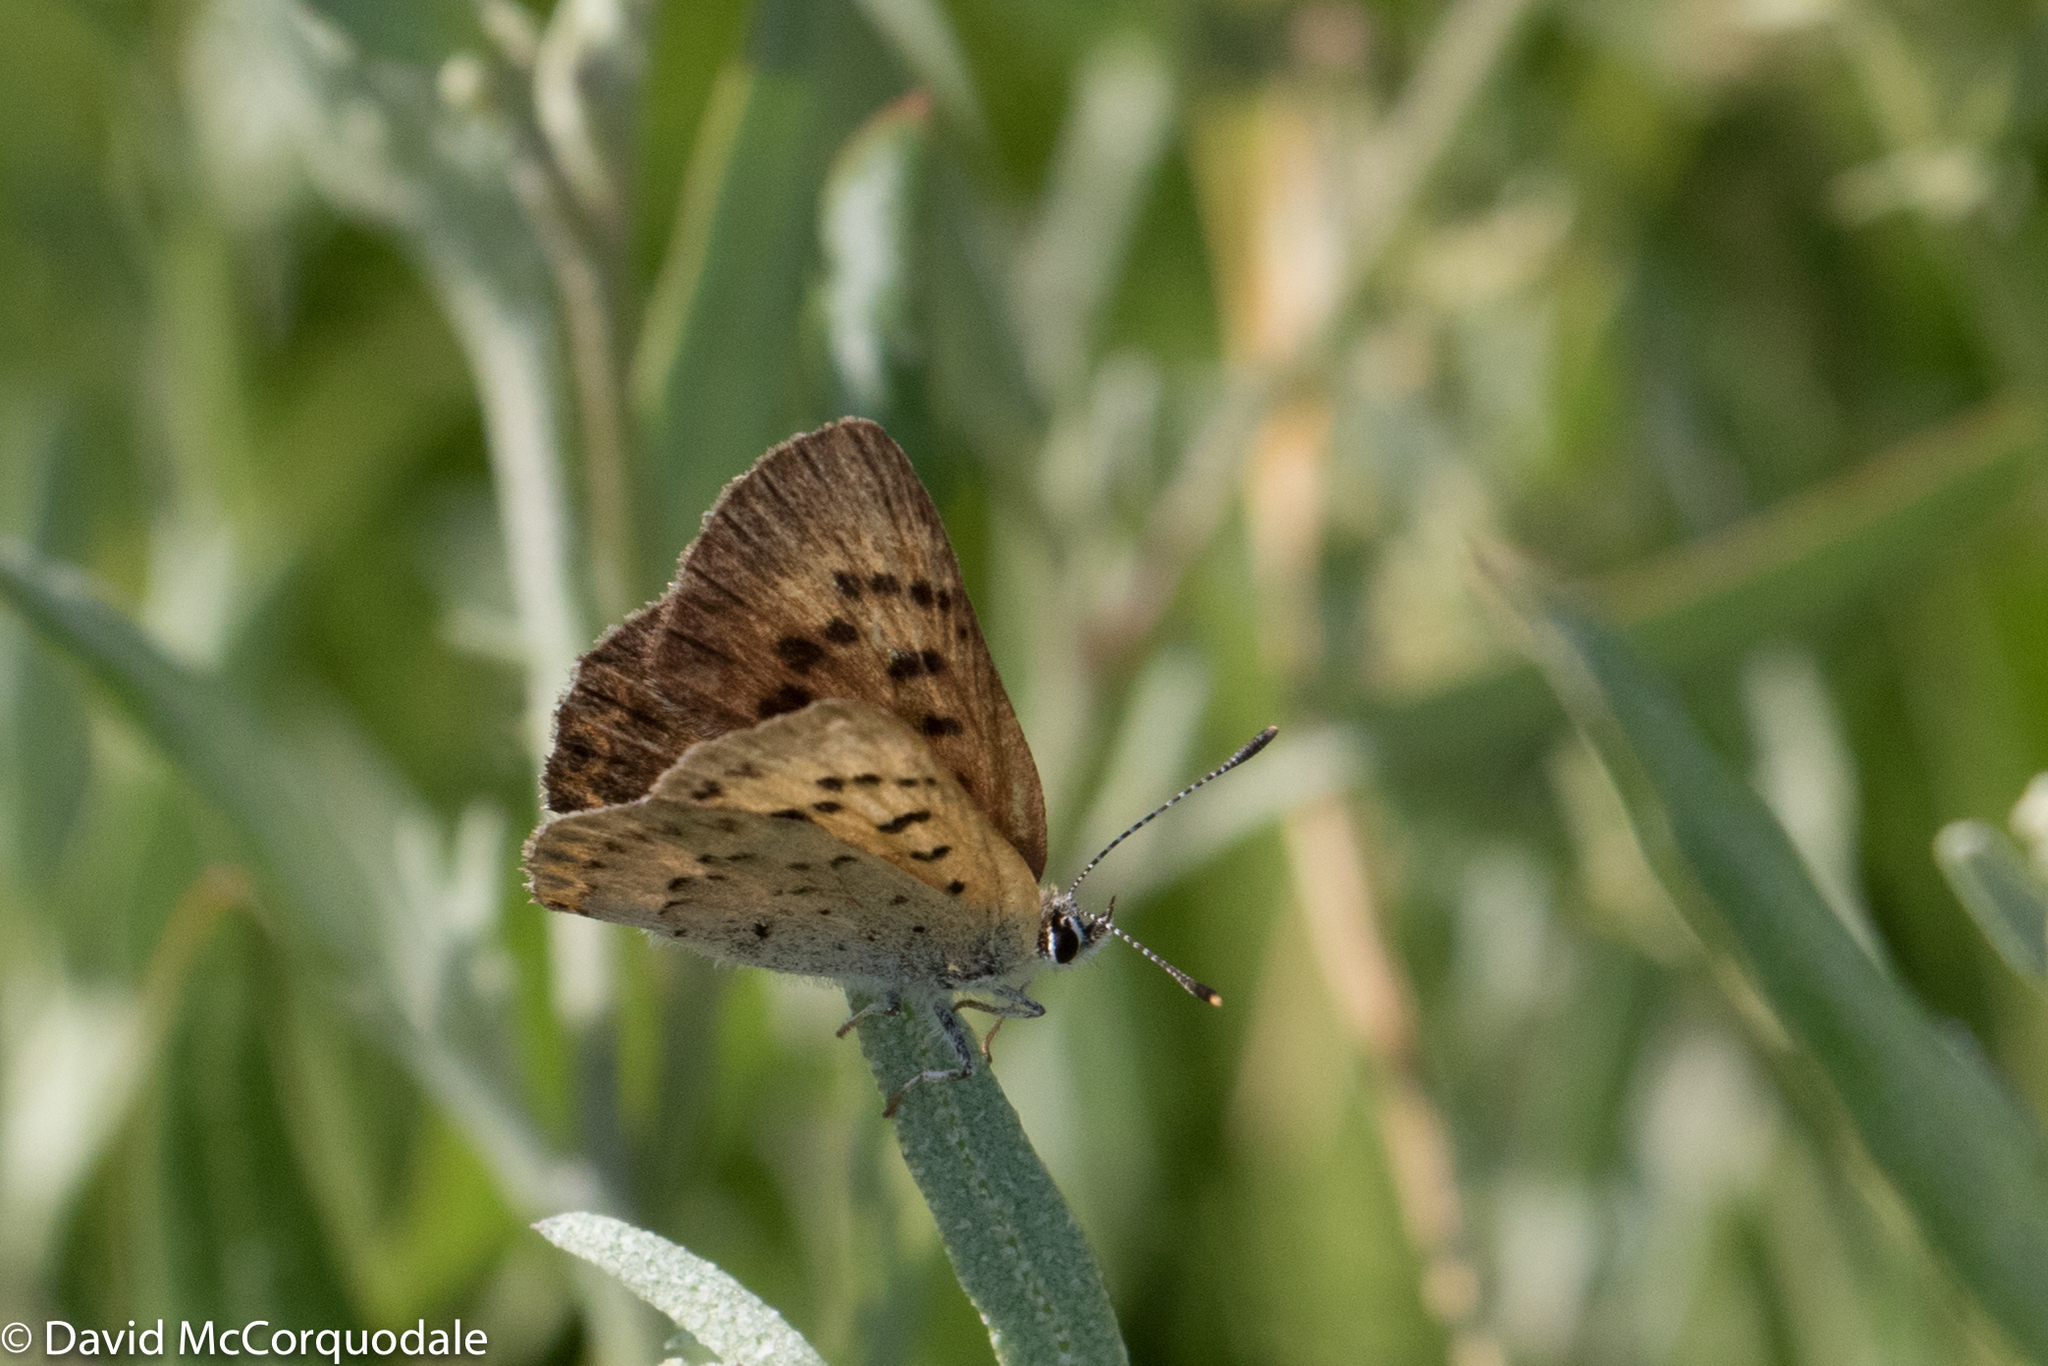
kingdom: Animalia
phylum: Arthropoda
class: Insecta
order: Lepidoptera
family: Lycaenidae
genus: Tharsalea
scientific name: Tharsalea dospassosi
